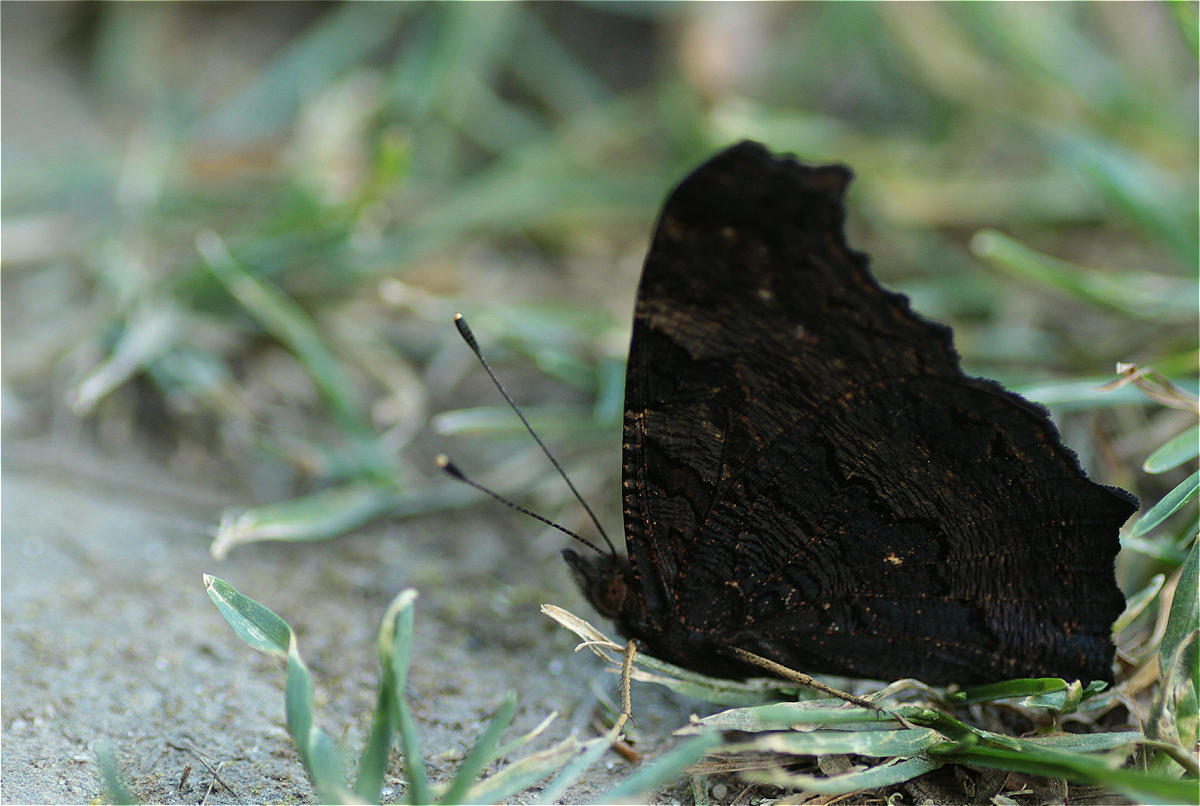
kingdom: Animalia
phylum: Arthropoda
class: Insecta
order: Lepidoptera
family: Nymphalidae
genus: Aglais
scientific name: Aglais io
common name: Peacock
